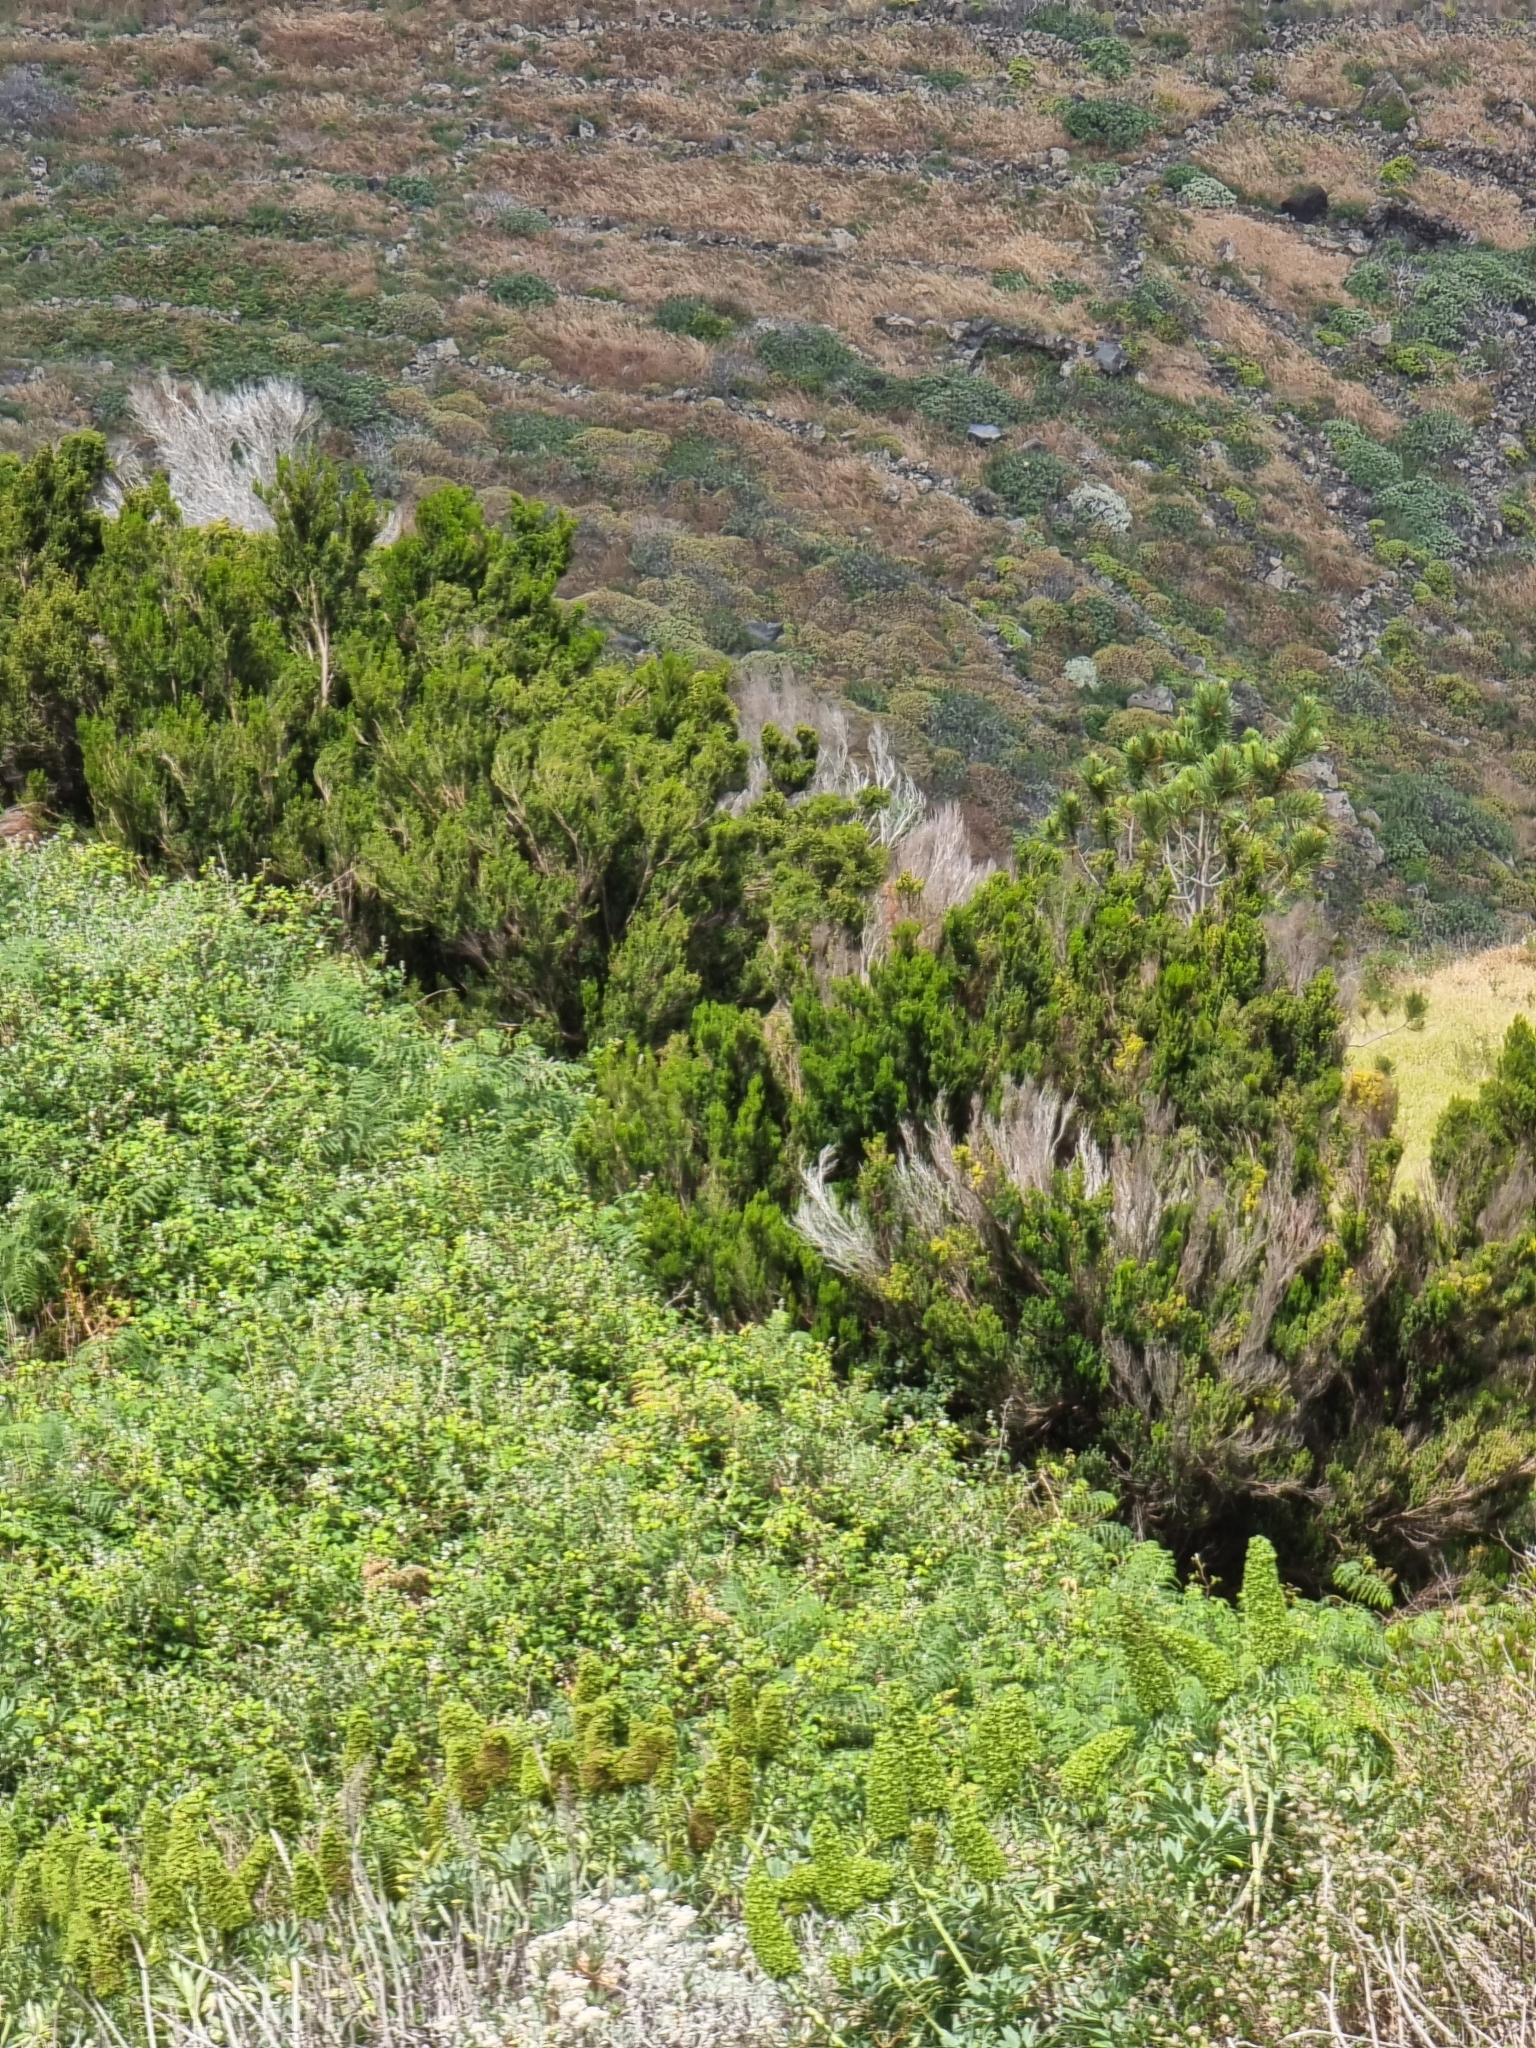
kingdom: Plantae
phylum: Tracheophyta
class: Magnoliopsida
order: Ericales
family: Ericaceae
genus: Erica
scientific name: Erica platycodon
